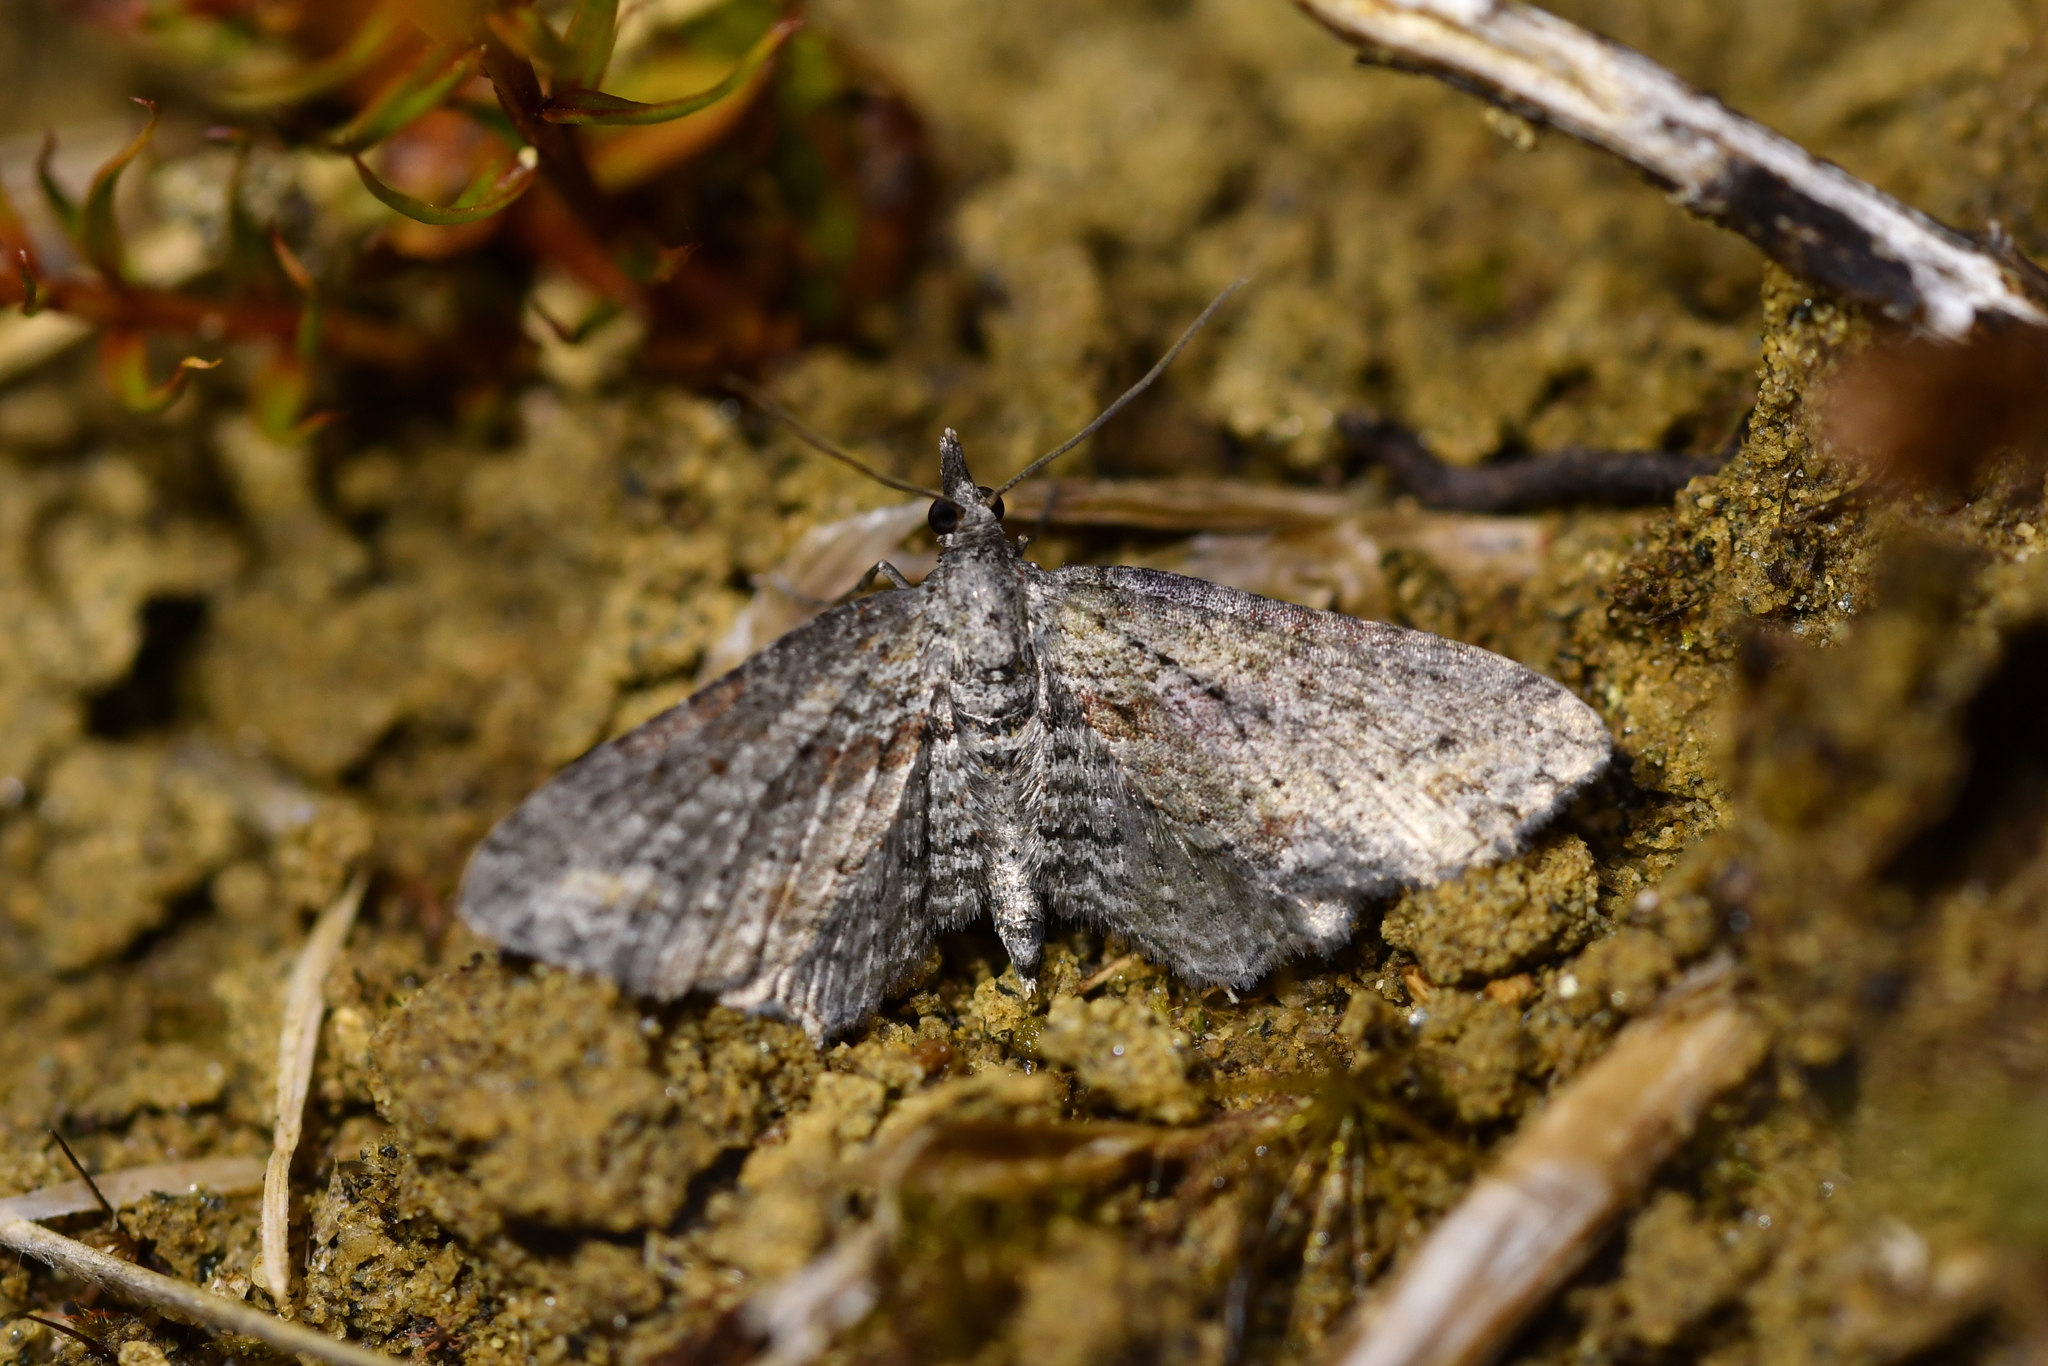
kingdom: Animalia
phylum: Arthropoda
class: Insecta
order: Lepidoptera
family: Geometridae
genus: Pasiphila
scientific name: Pasiphila humilis
